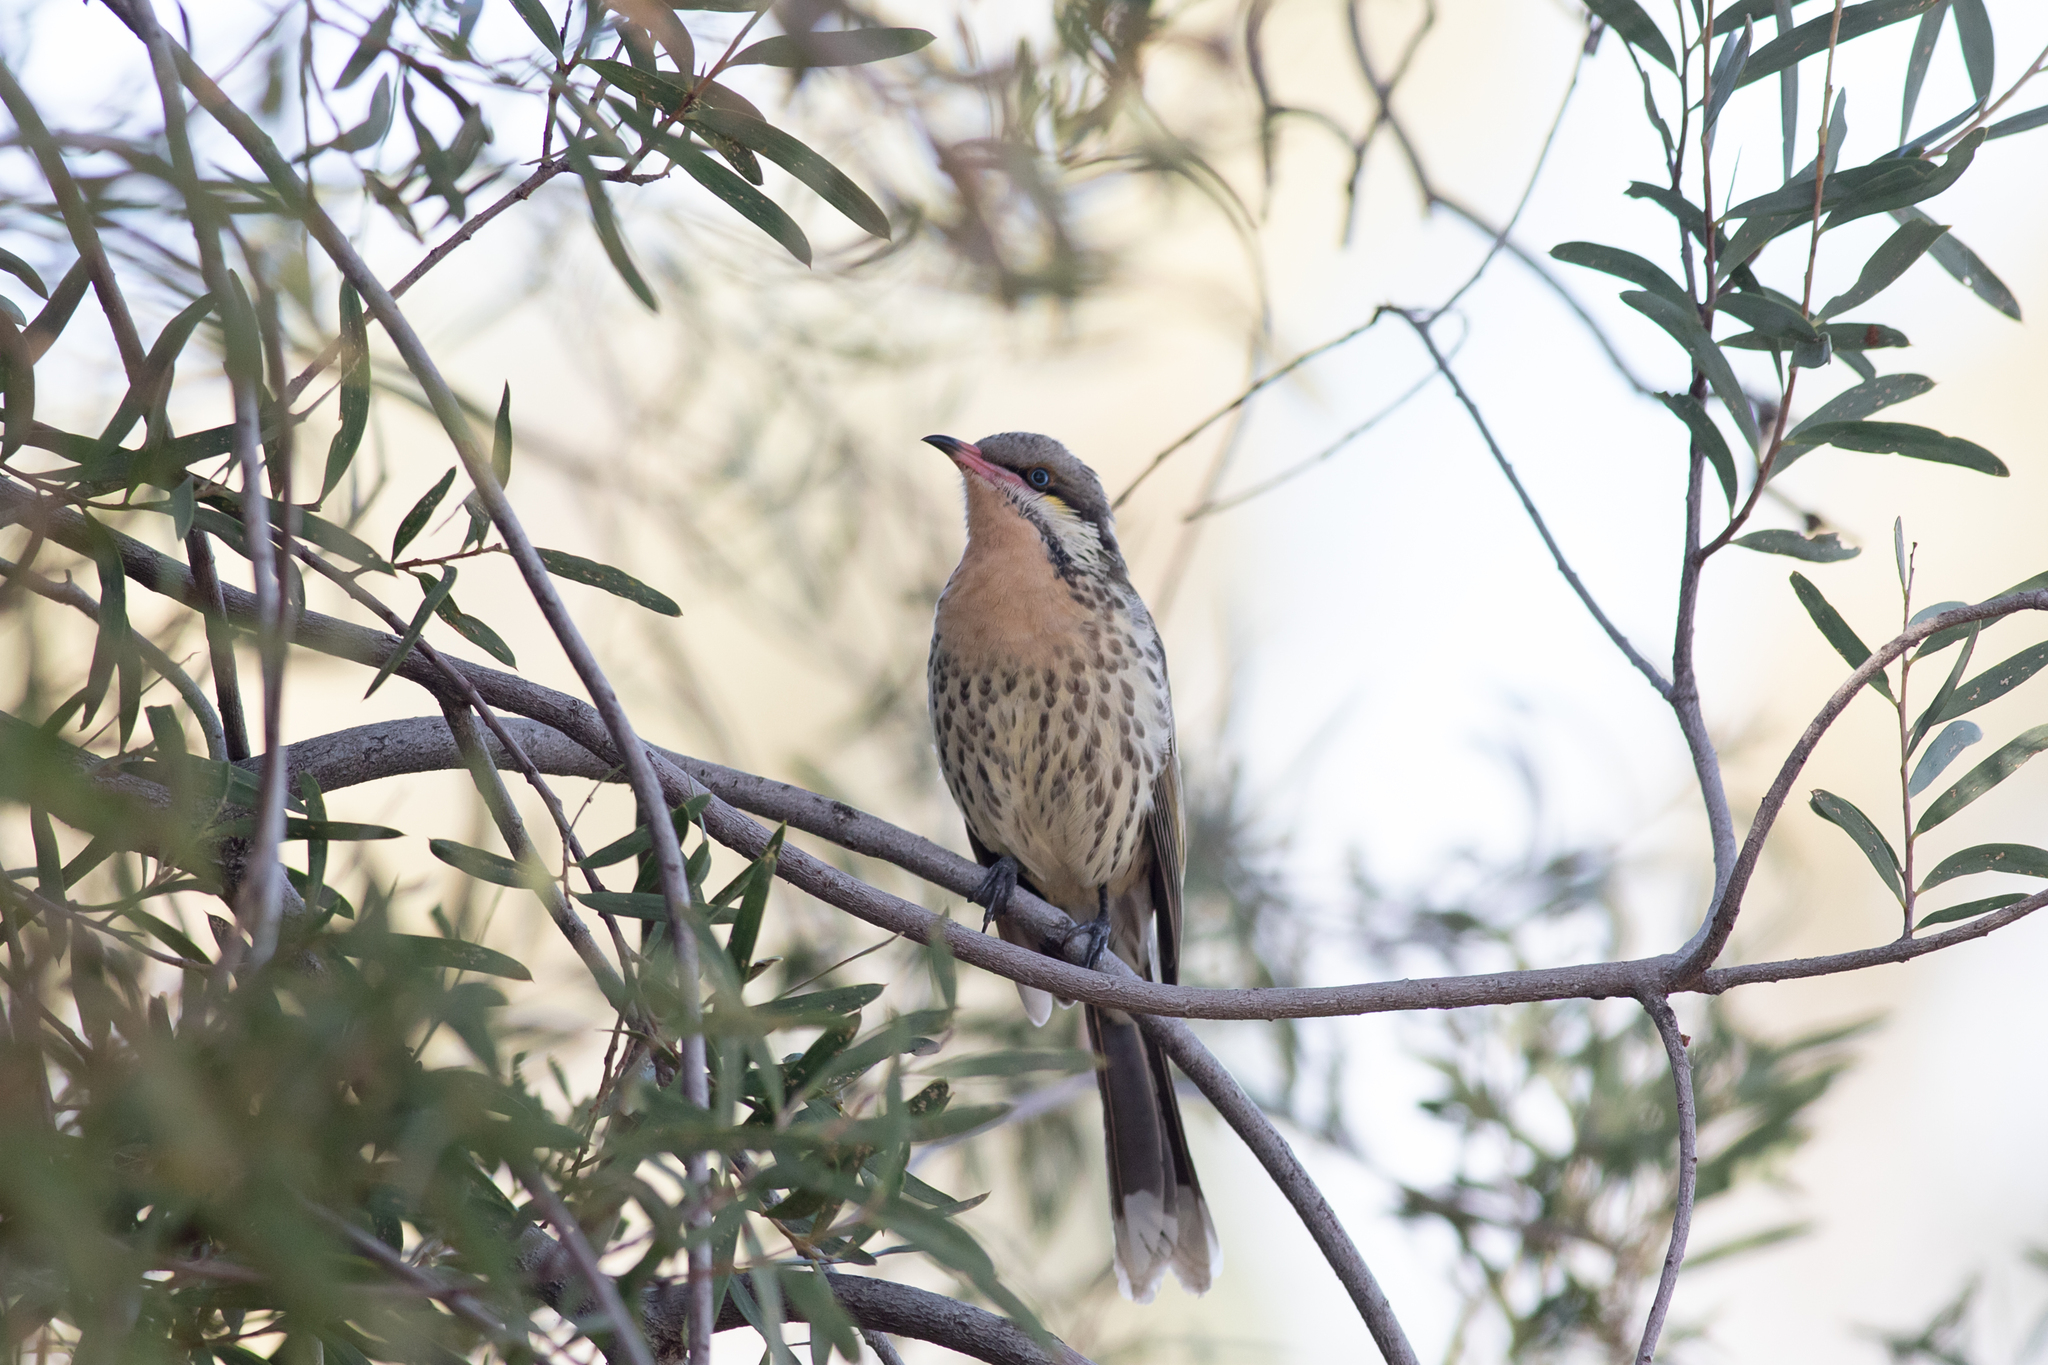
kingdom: Animalia
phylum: Chordata
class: Aves
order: Passeriformes
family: Meliphagidae
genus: Acanthagenys
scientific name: Acanthagenys rufogularis
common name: Spiny-cheeked honeyeater
